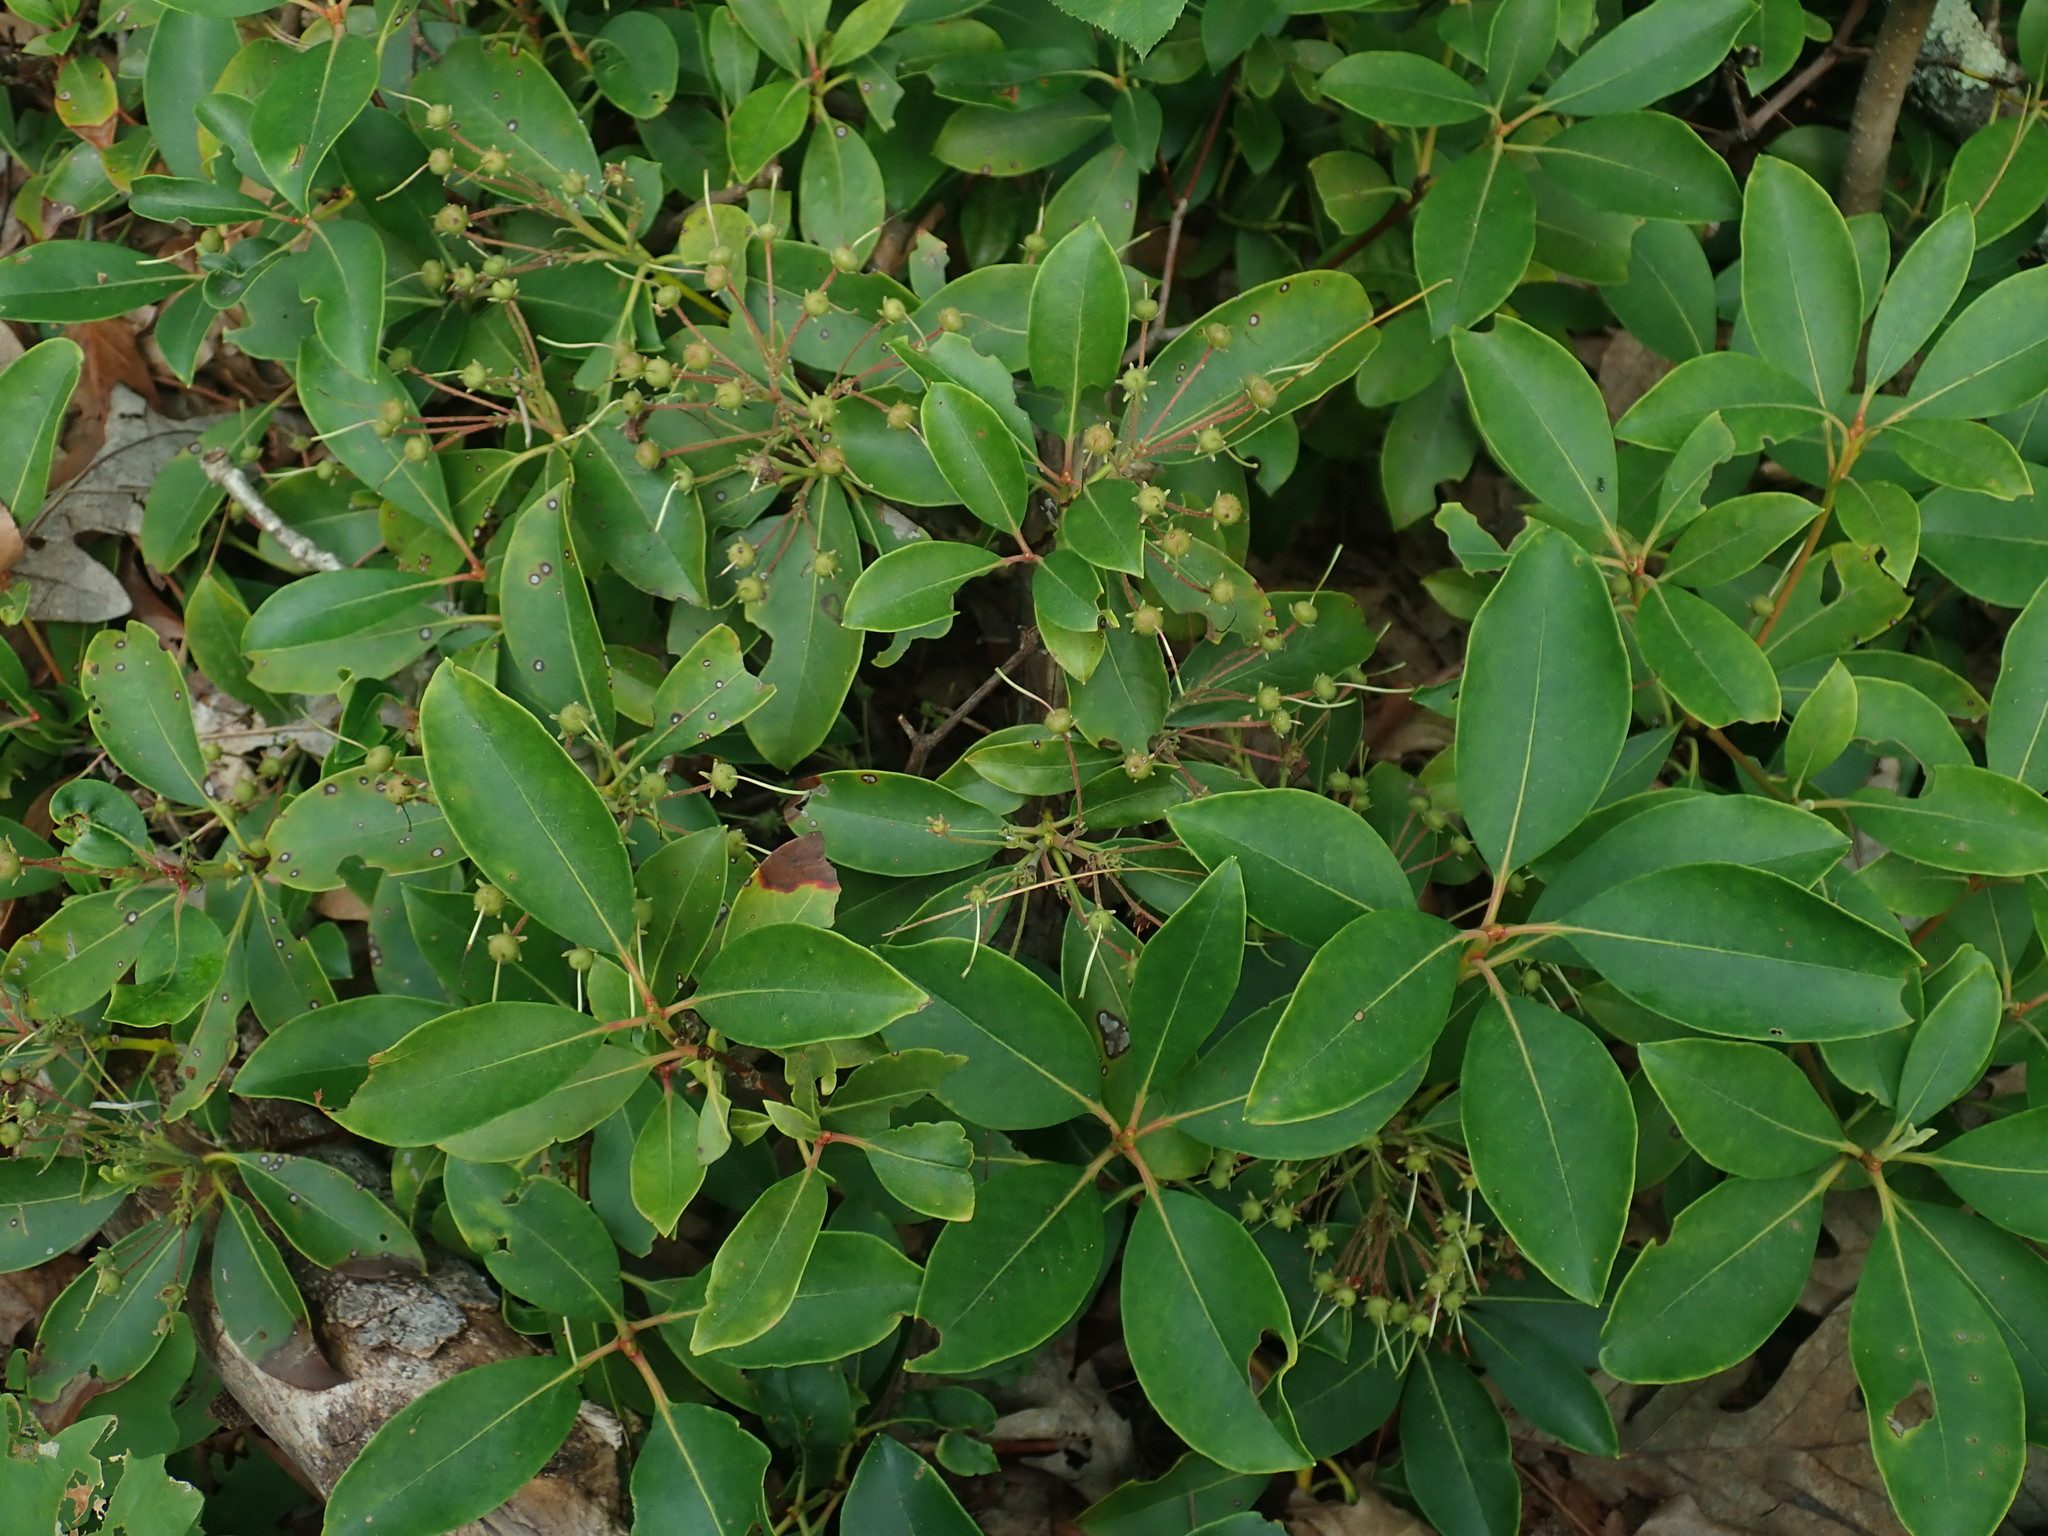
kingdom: Plantae
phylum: Tracheophyta
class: Magnoliopsida
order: Ericales
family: Ericaceae
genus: Kalmia
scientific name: Kalmia latifolia
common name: Mountain-laurel
